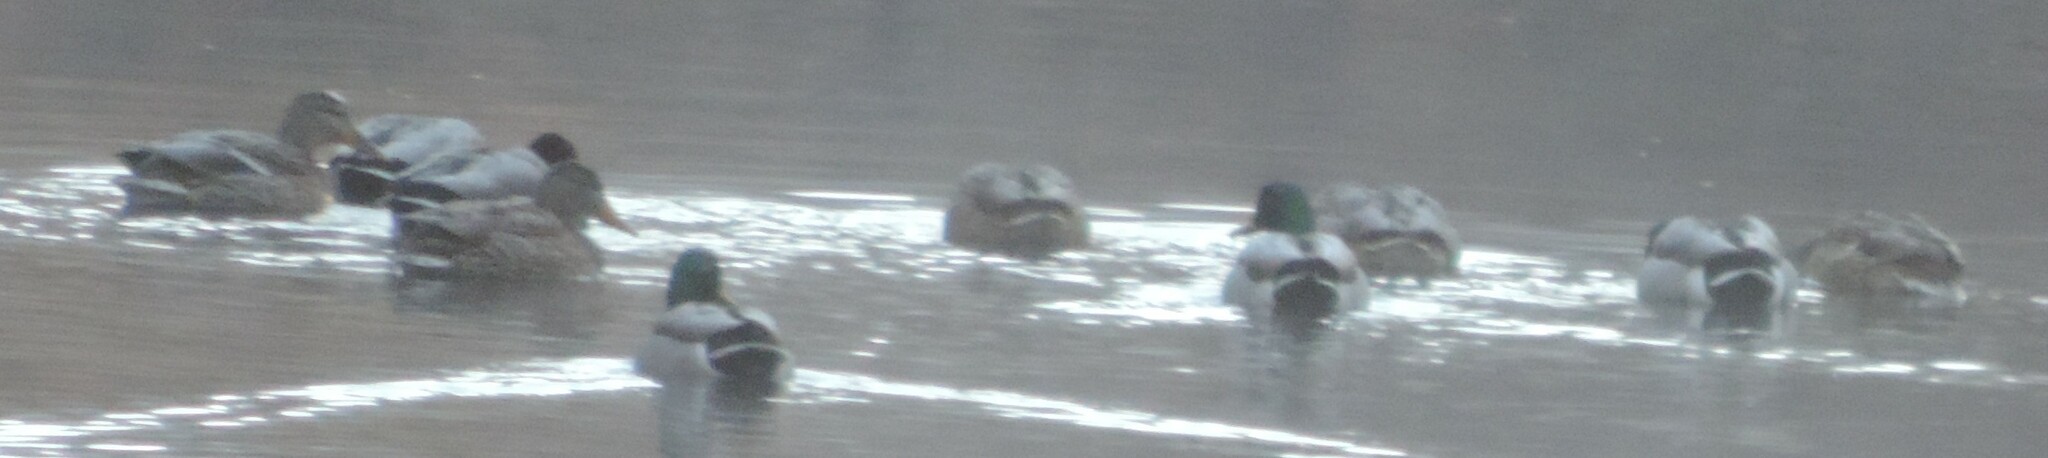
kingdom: Animalia
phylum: Chordata
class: Aves
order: Anseriformes
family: Anatidae
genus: Anas
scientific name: Anas platyrhynchos
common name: Mallard
